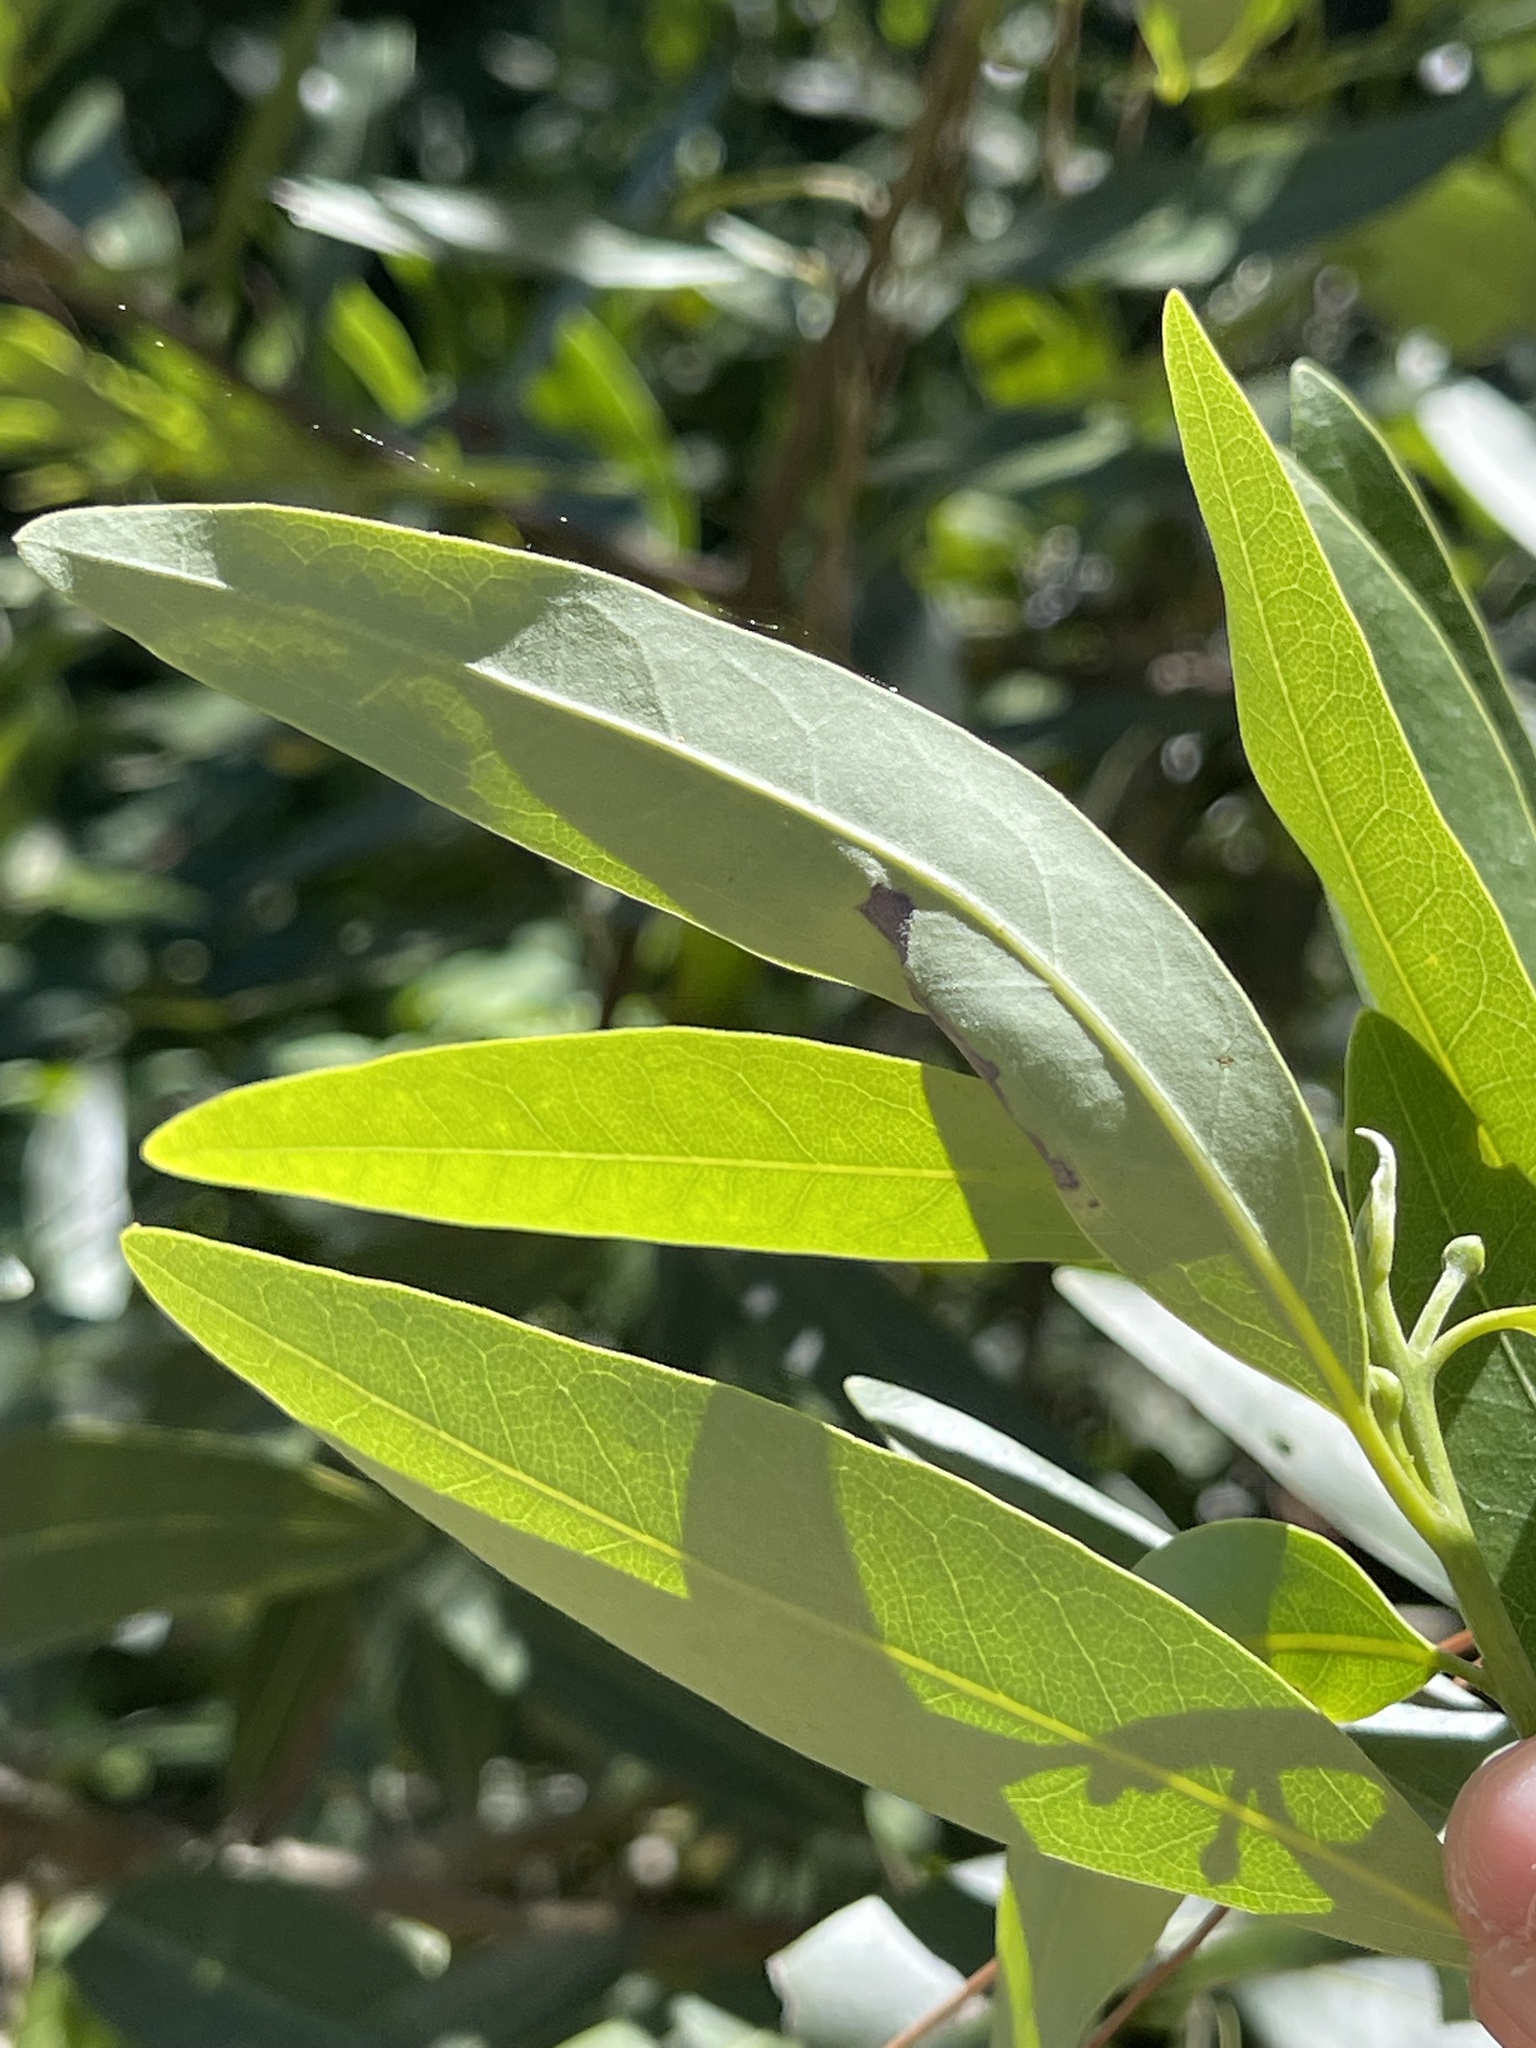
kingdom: Plantae
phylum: Tracheophyta
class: Magnoliopsida
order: Laurales
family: Lauraceae
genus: Umbellularia
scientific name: Umbellularia californica
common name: California bay
